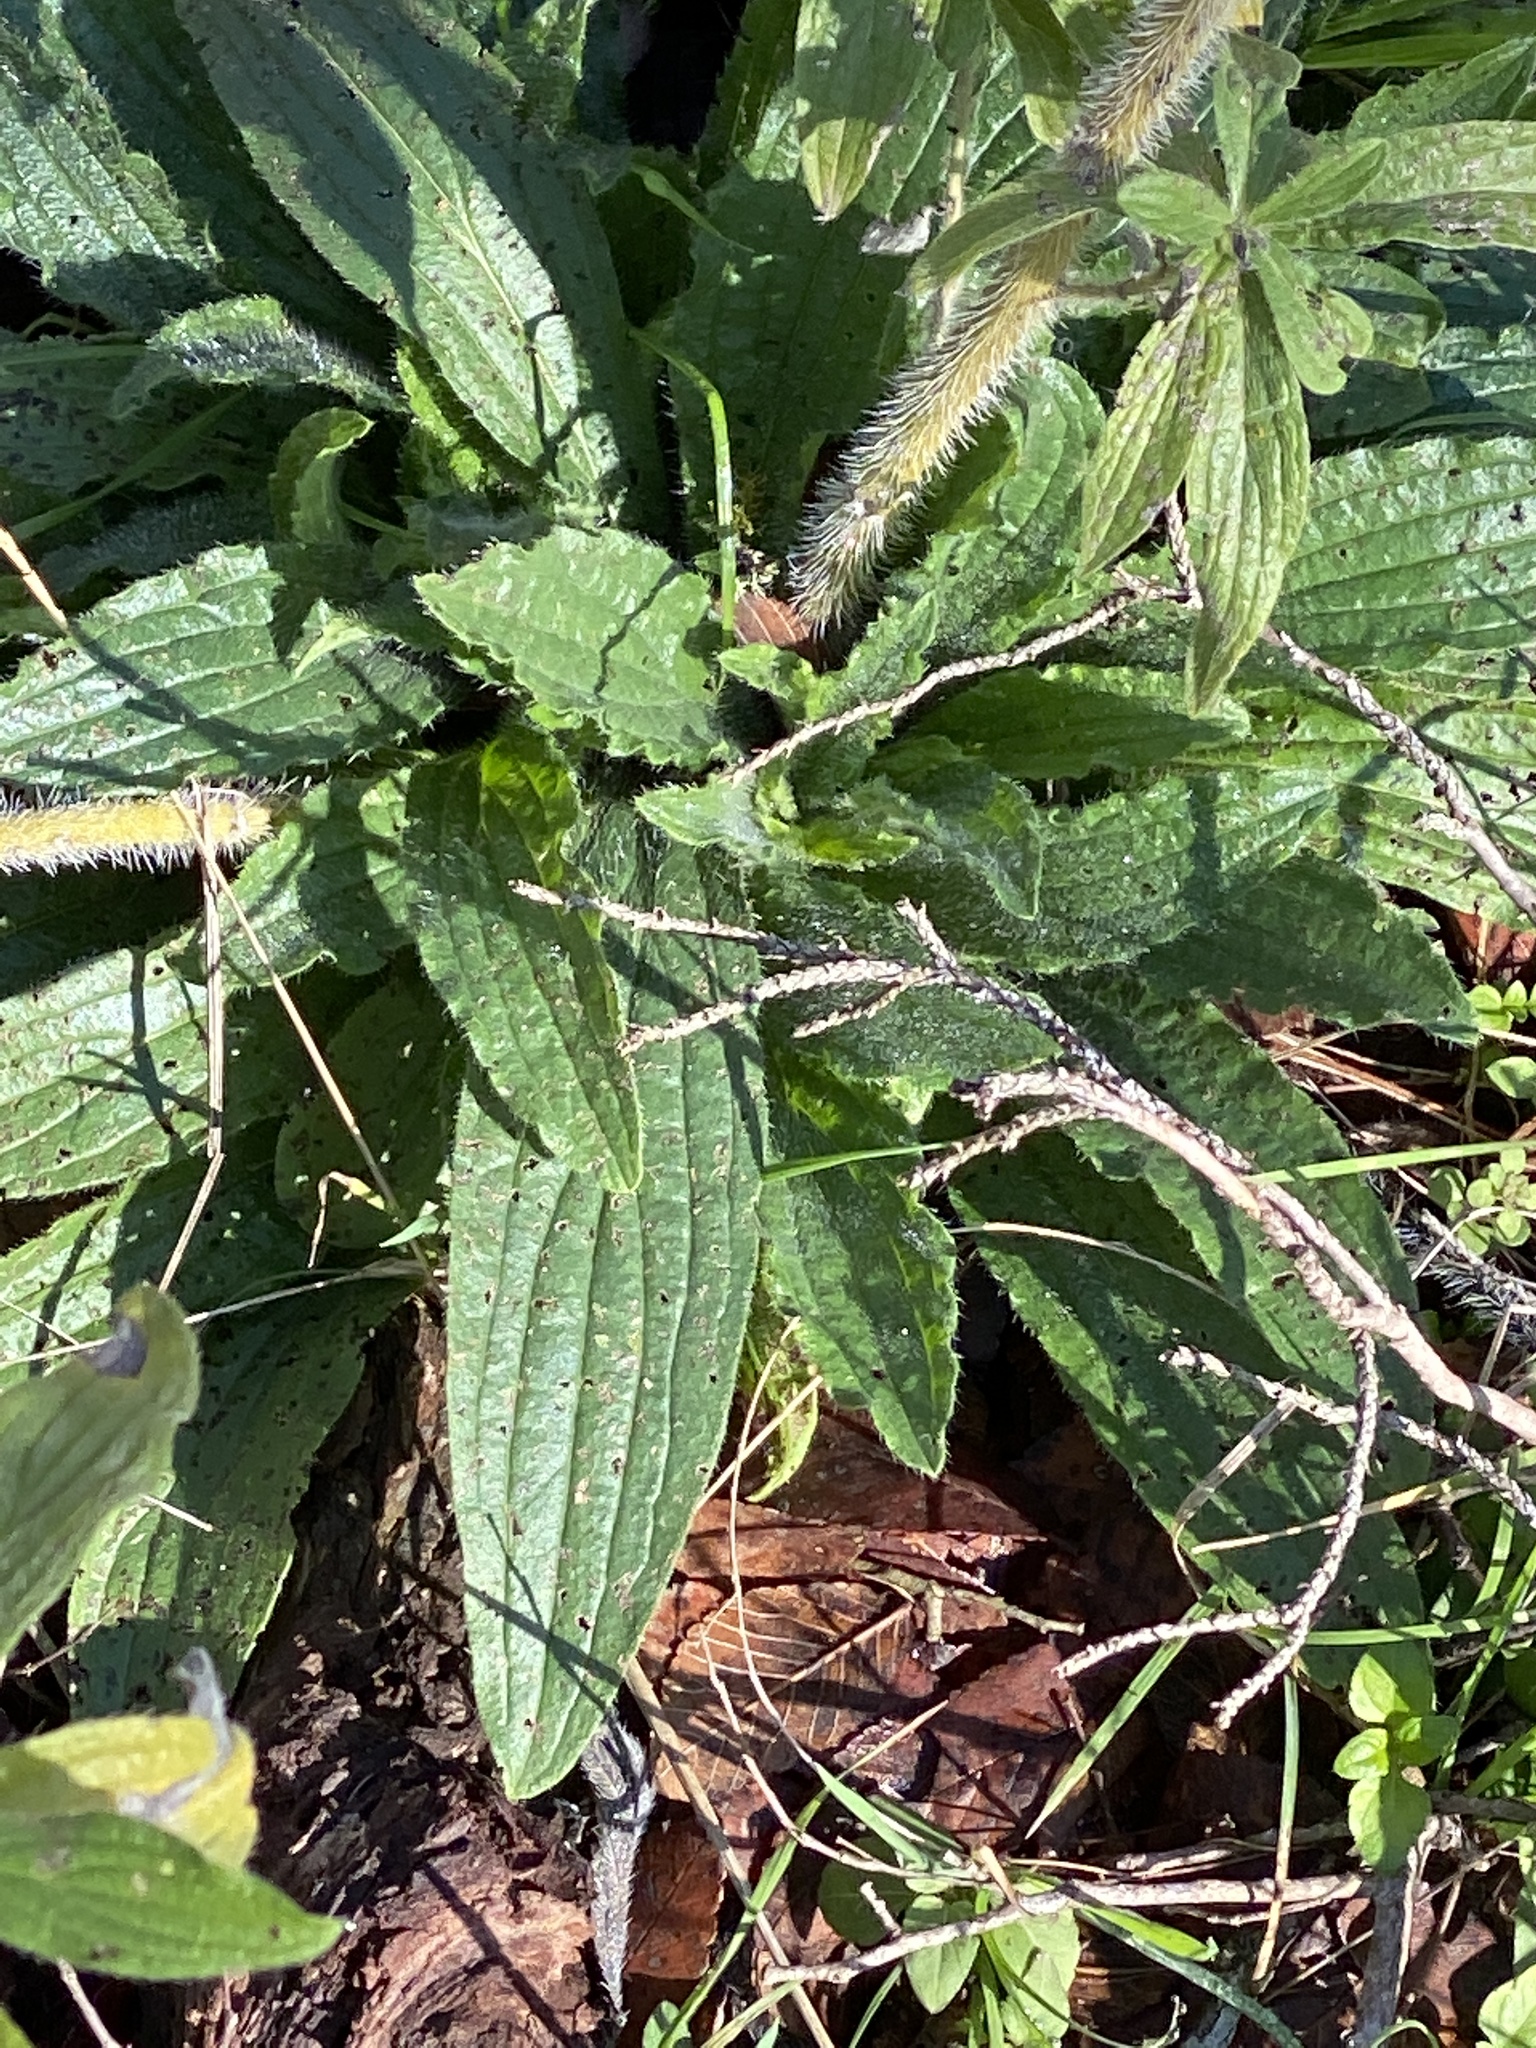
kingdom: Plantae
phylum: Tracheophyta
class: Magnoliopsida
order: Boraginales
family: Boraginaceae
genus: Lithospermum
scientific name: Lithospermum caroliniense
